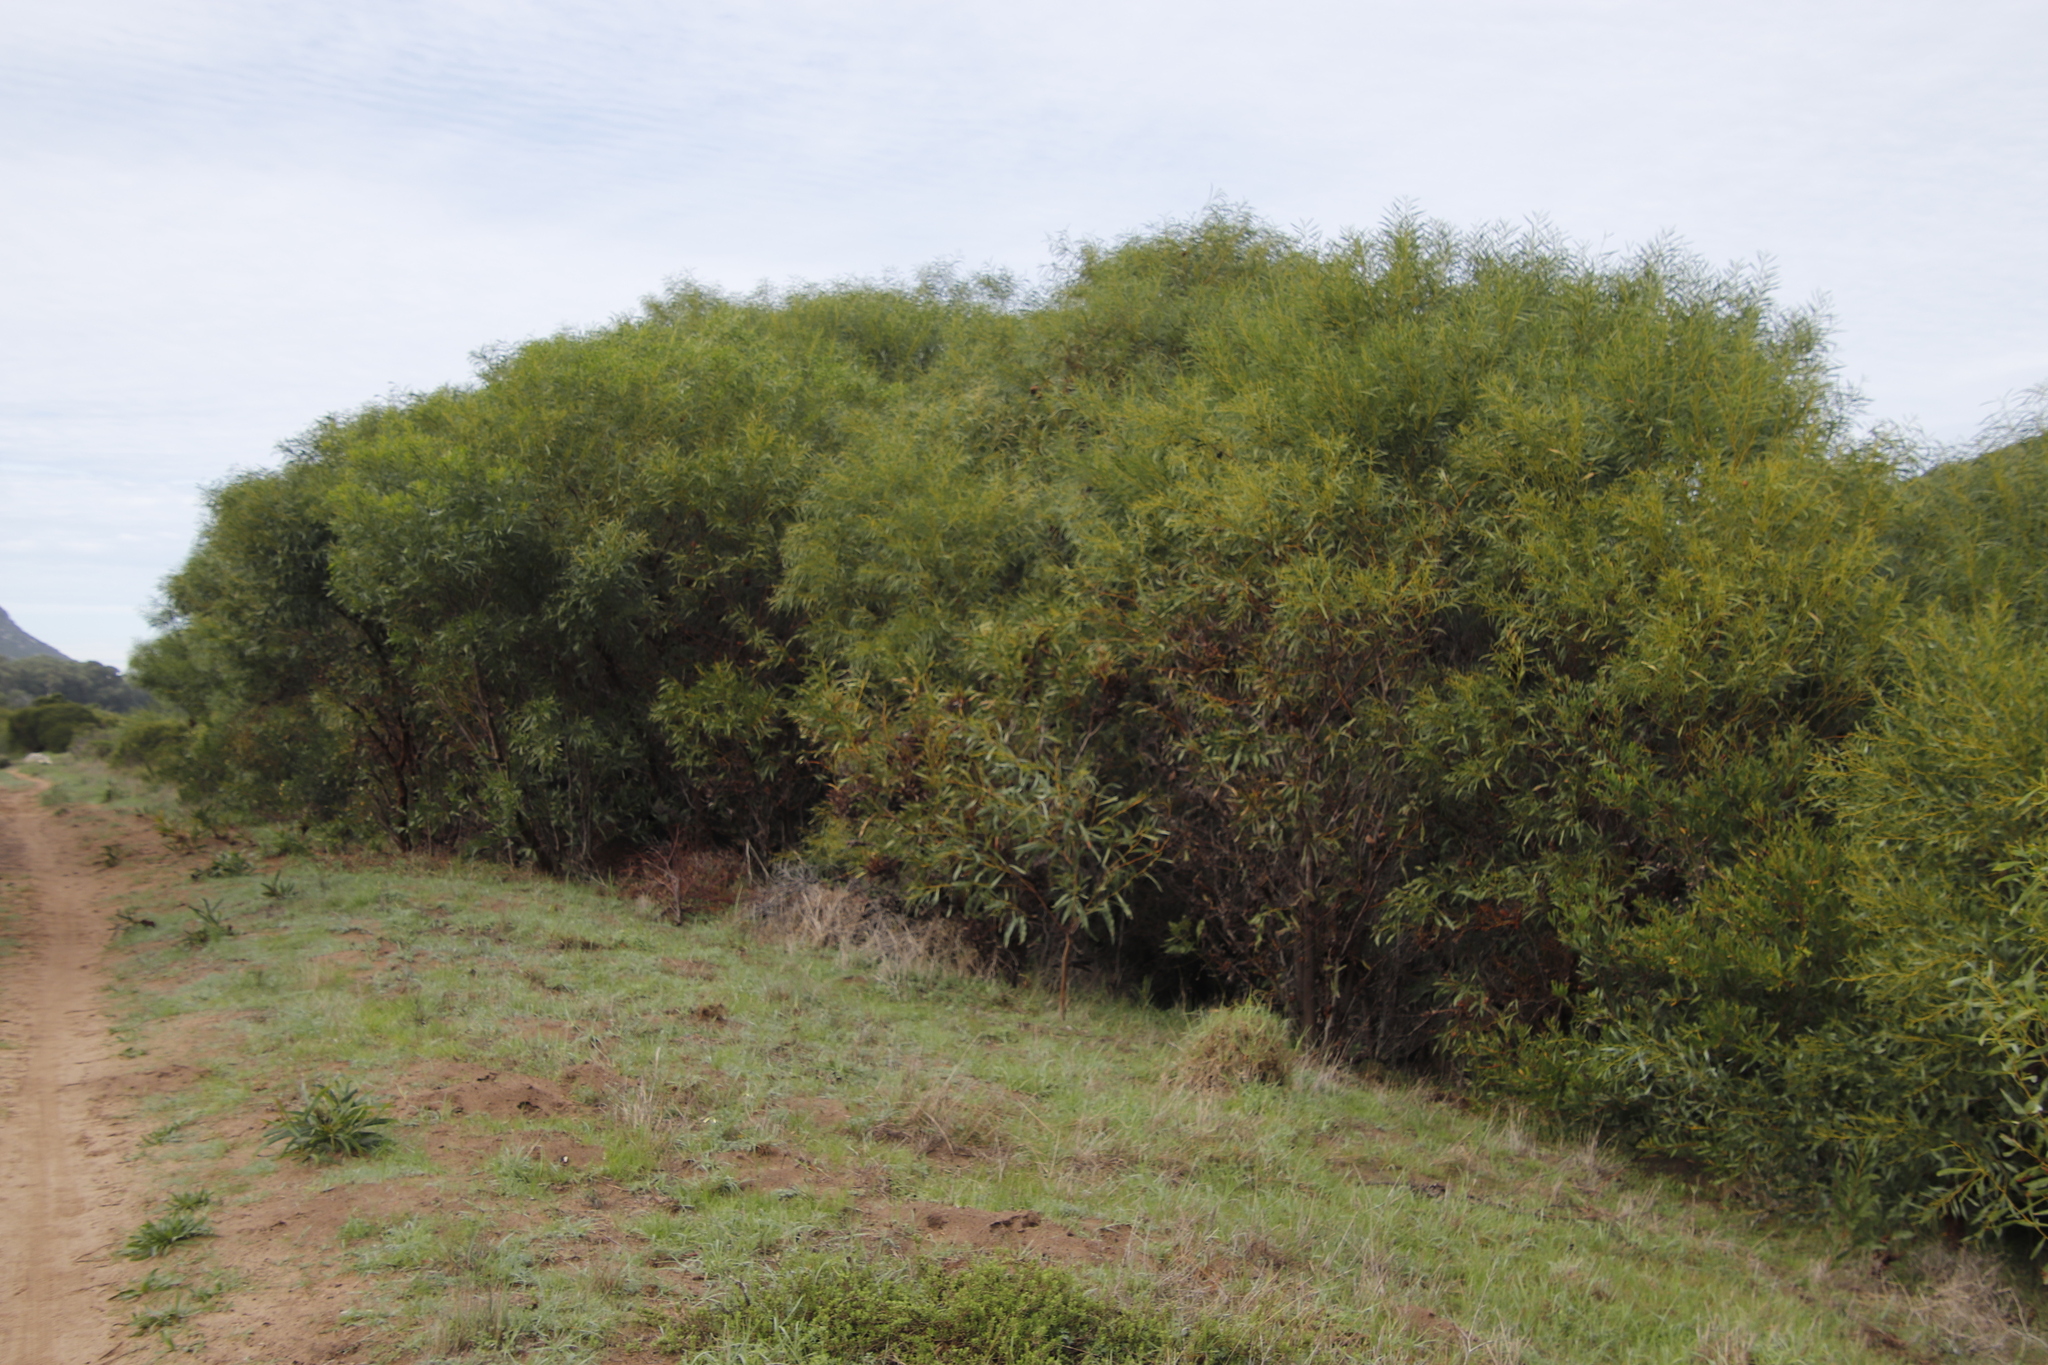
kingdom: Plantae
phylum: Tracheophyta
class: Magnoliopsida
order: Fabales
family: Fabaceae
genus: Acacia
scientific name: Acacia saligna
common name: Orange wattle
